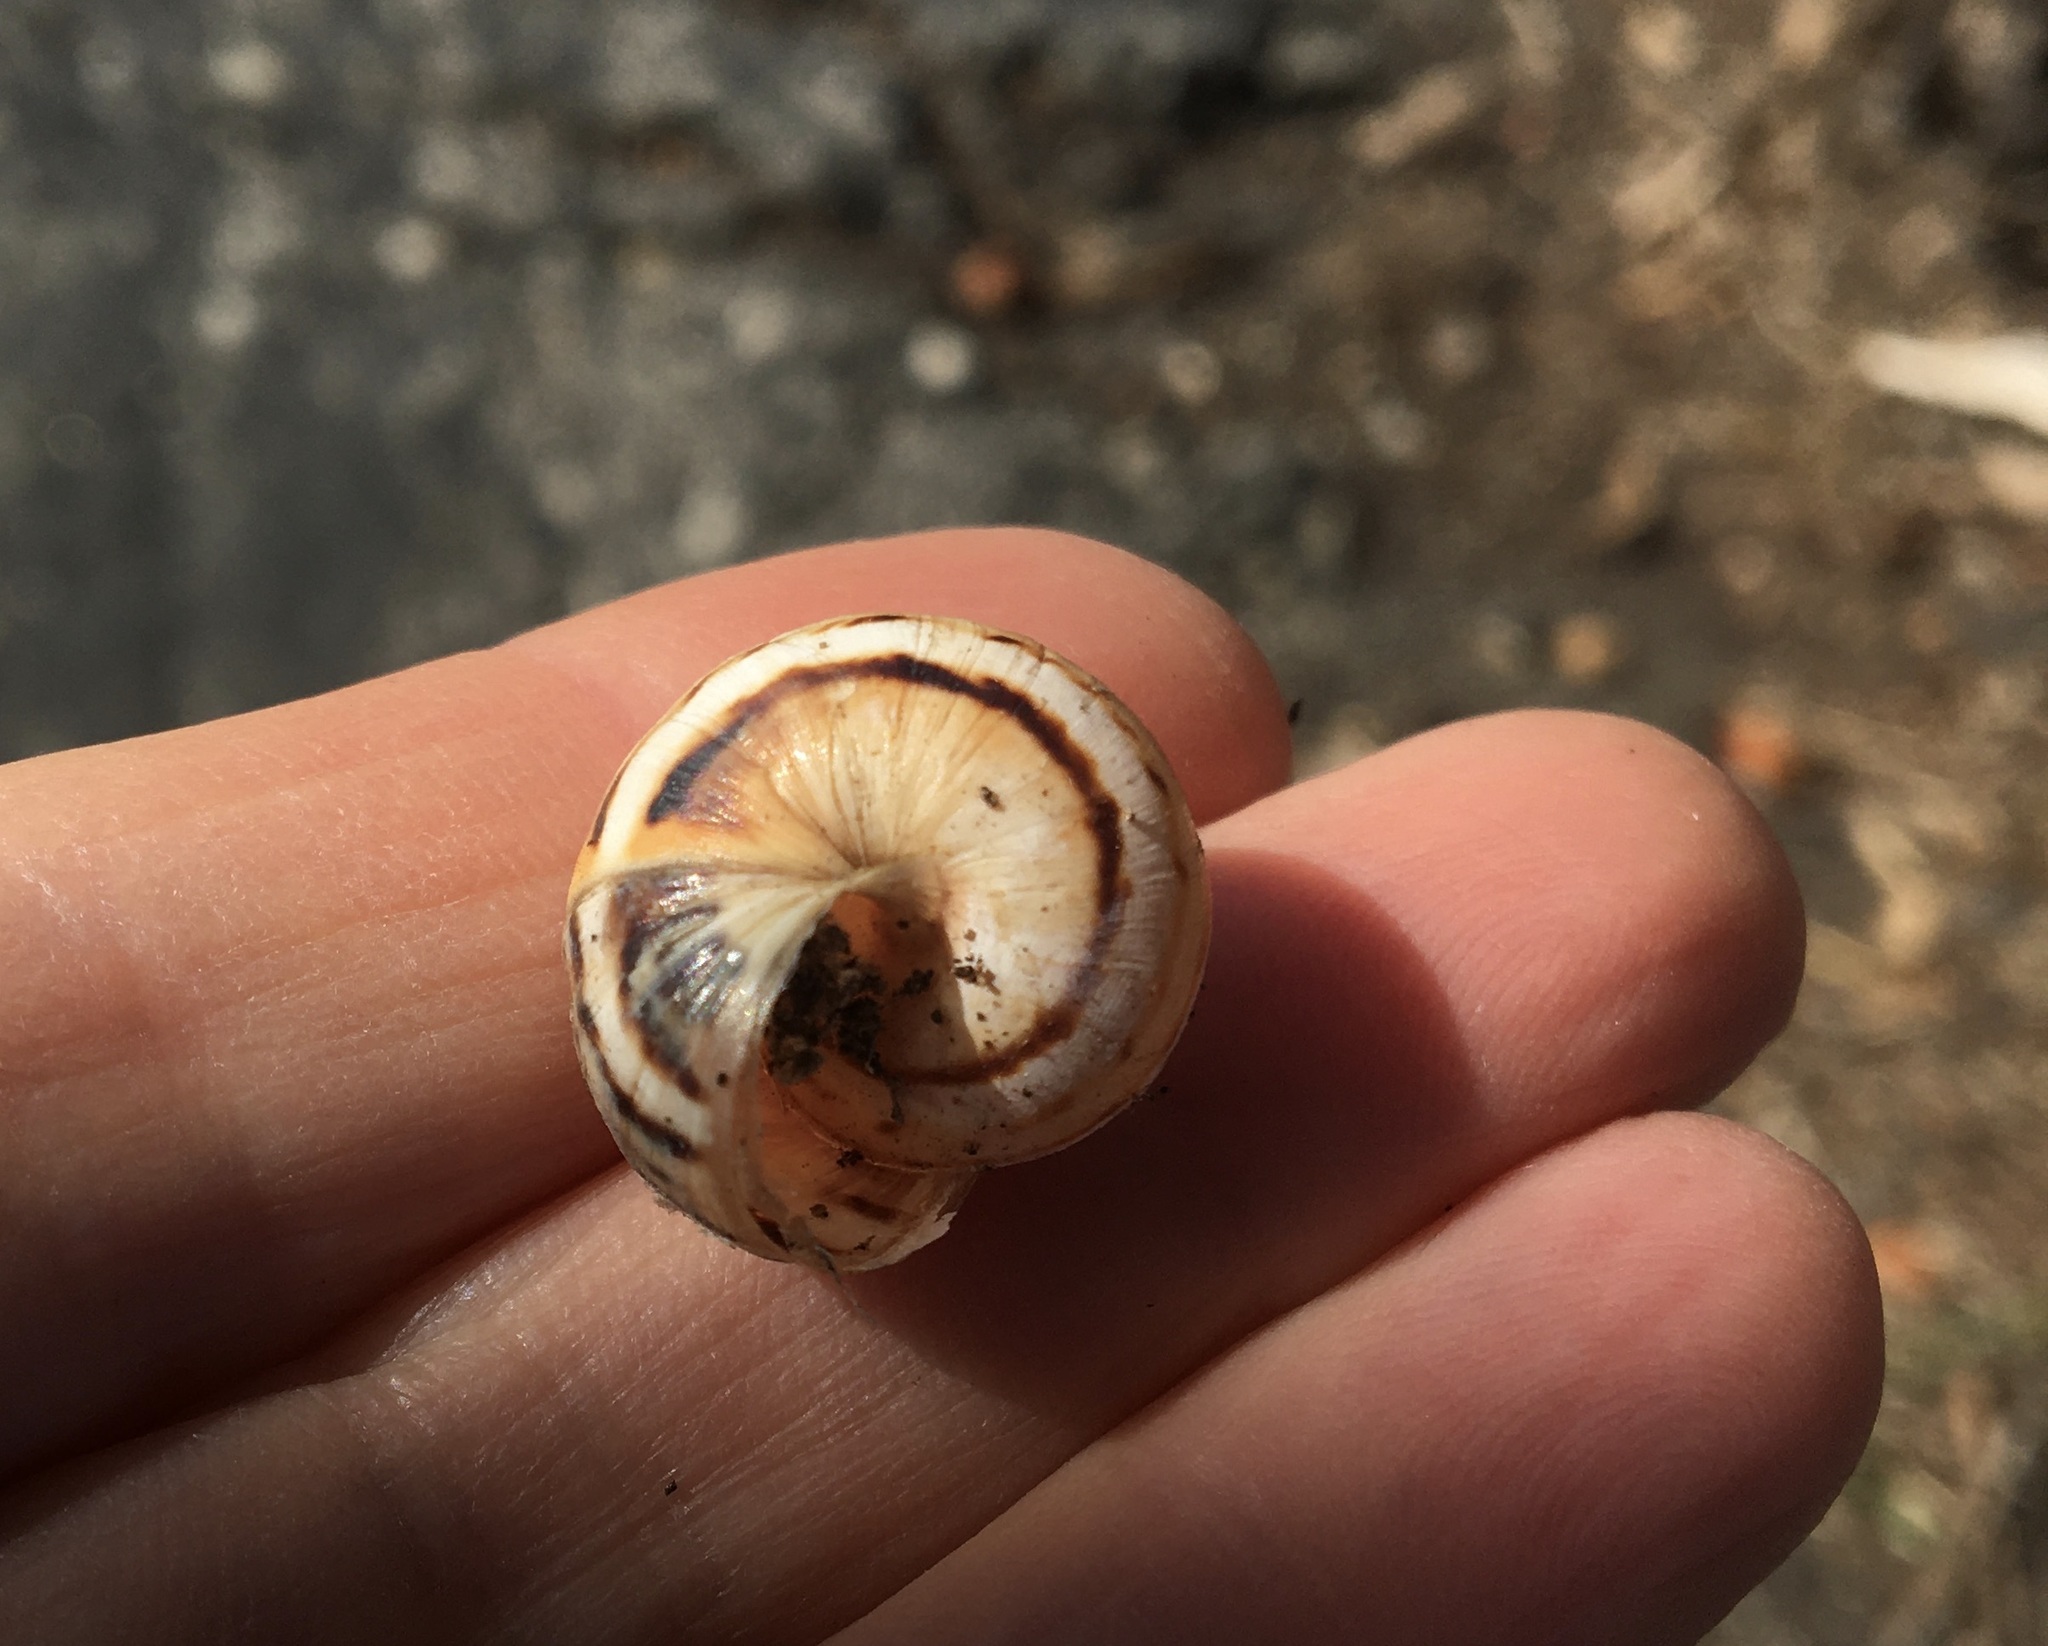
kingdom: Animalia
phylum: Mollusca
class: Gastropoda
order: Stylommatophora
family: Helicidae
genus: Theba
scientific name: Theba pisana
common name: White snail
